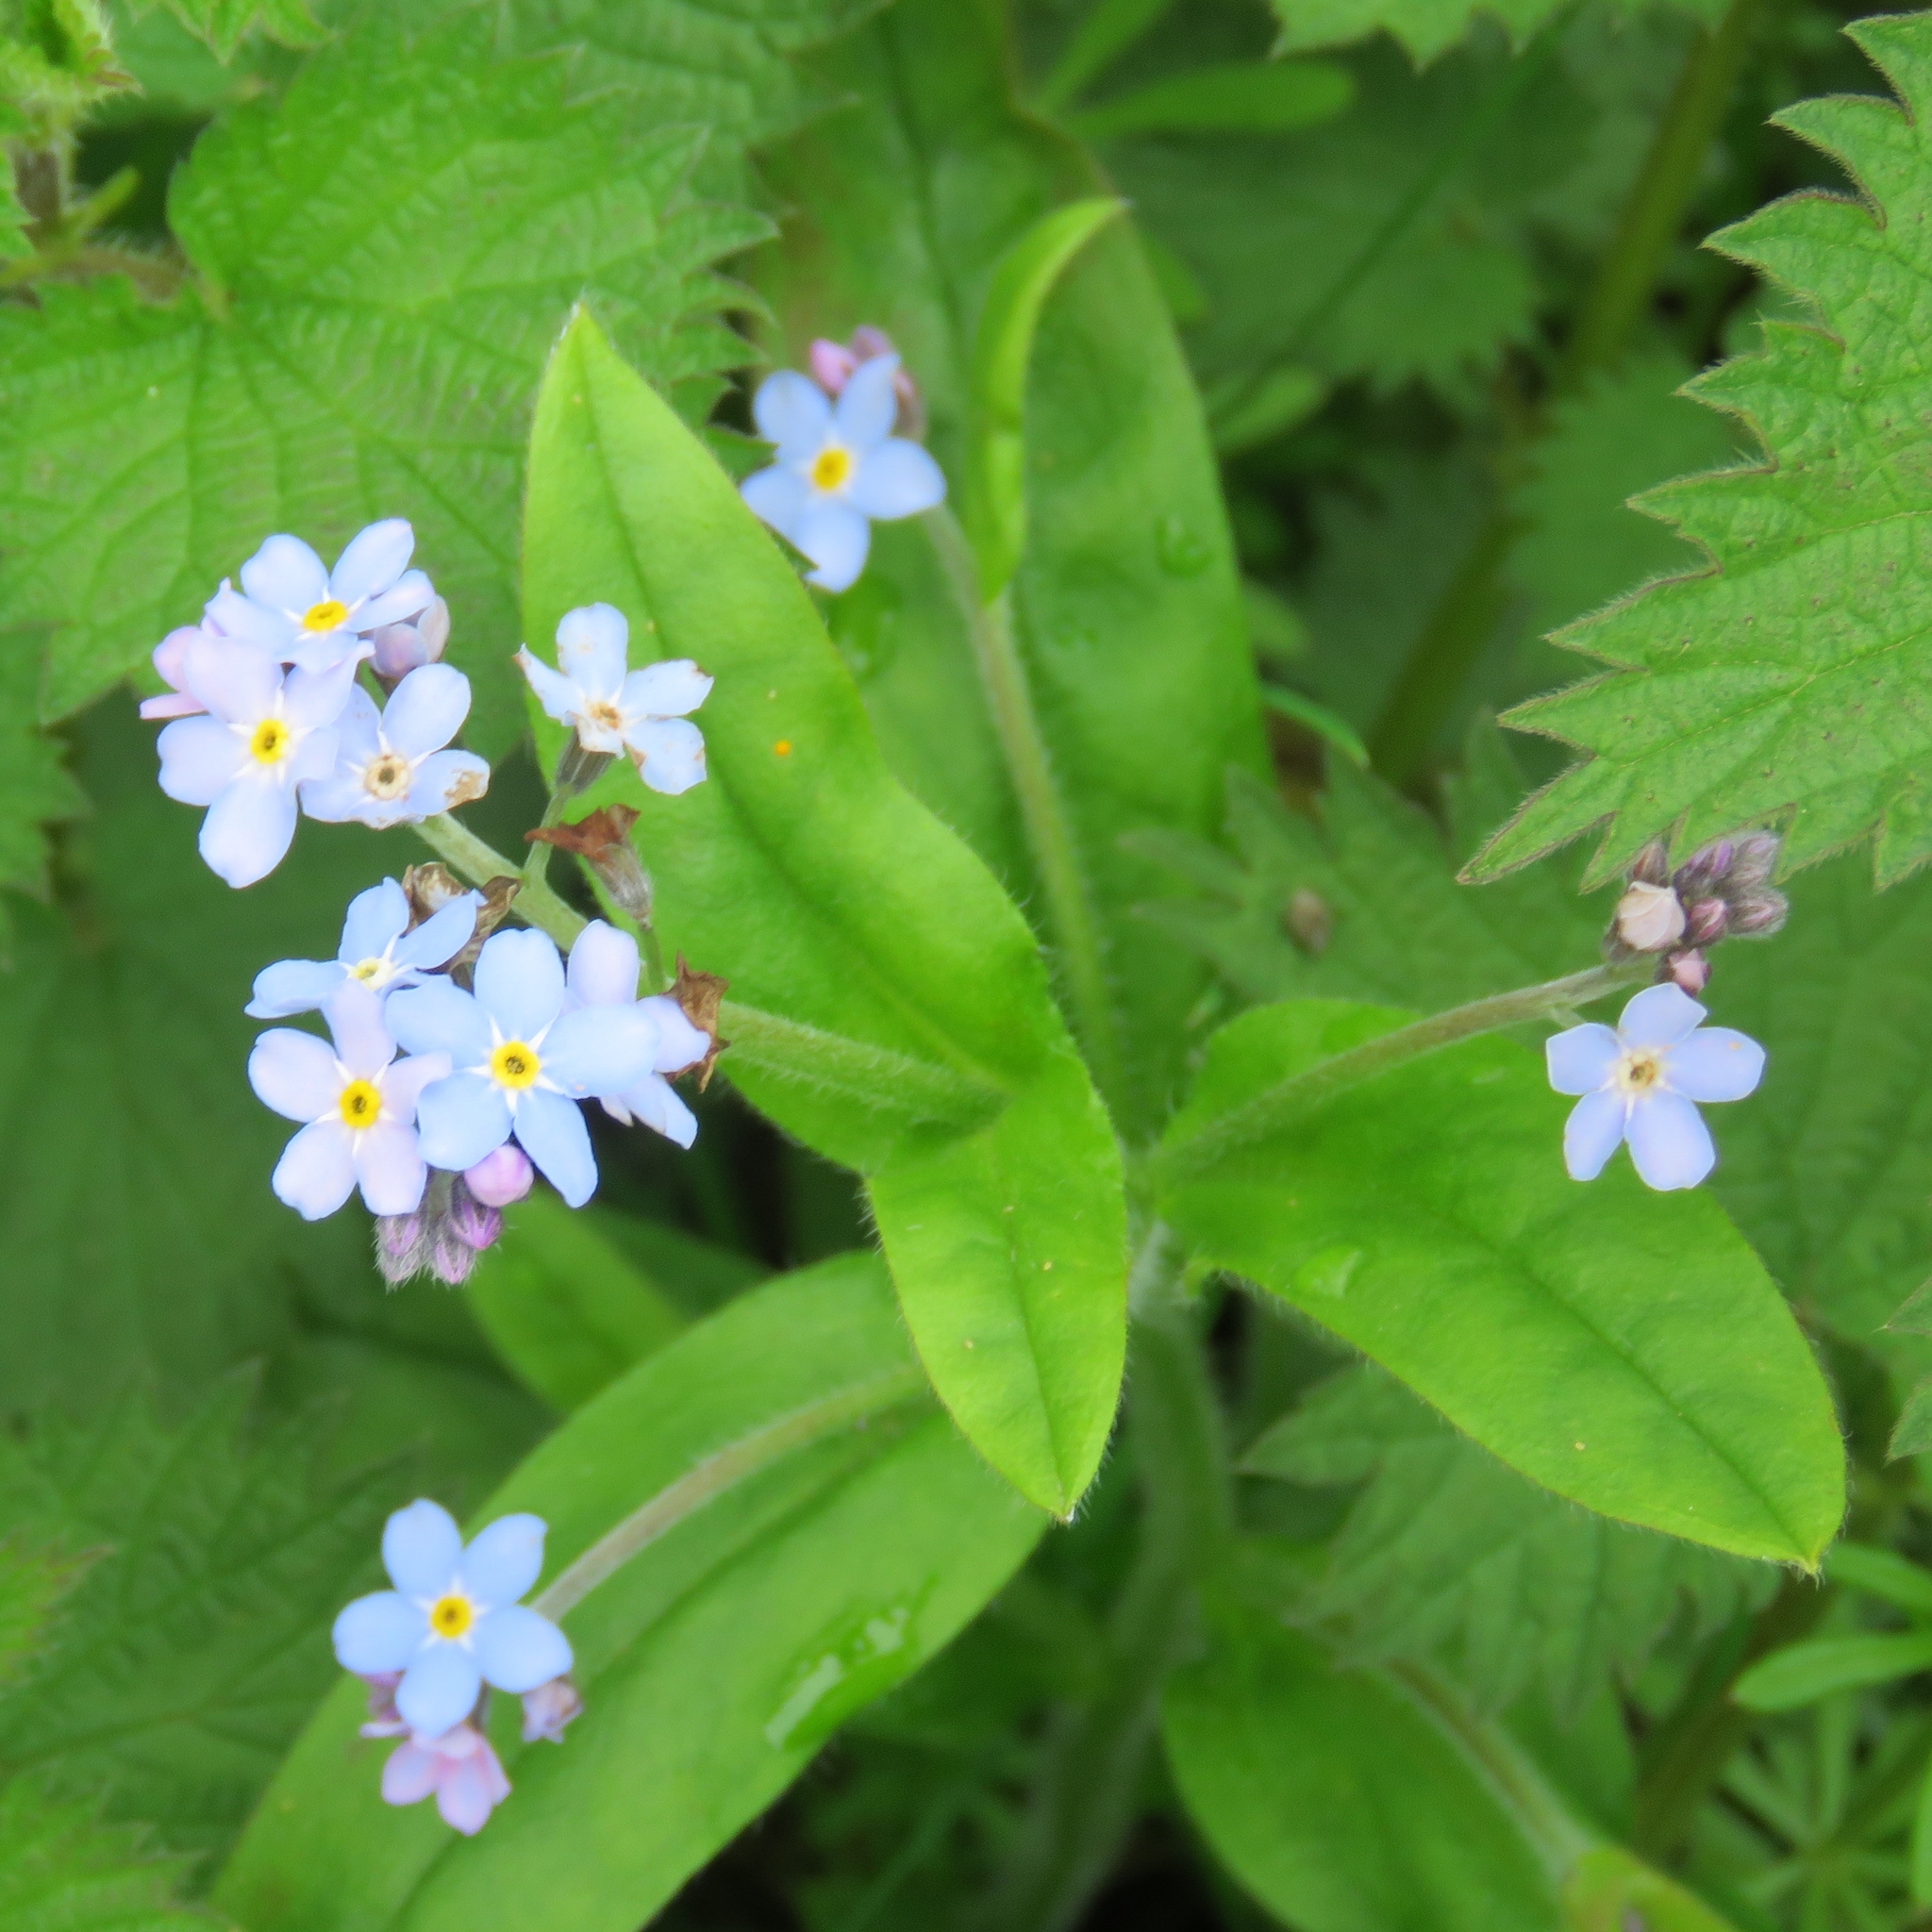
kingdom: Plantae
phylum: Tracheophyta
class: Magnoliopsida
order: Boraginales
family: Boraginaceae
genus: Myosotis
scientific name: Myosotis sylvatica
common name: Wood forget-me-not
